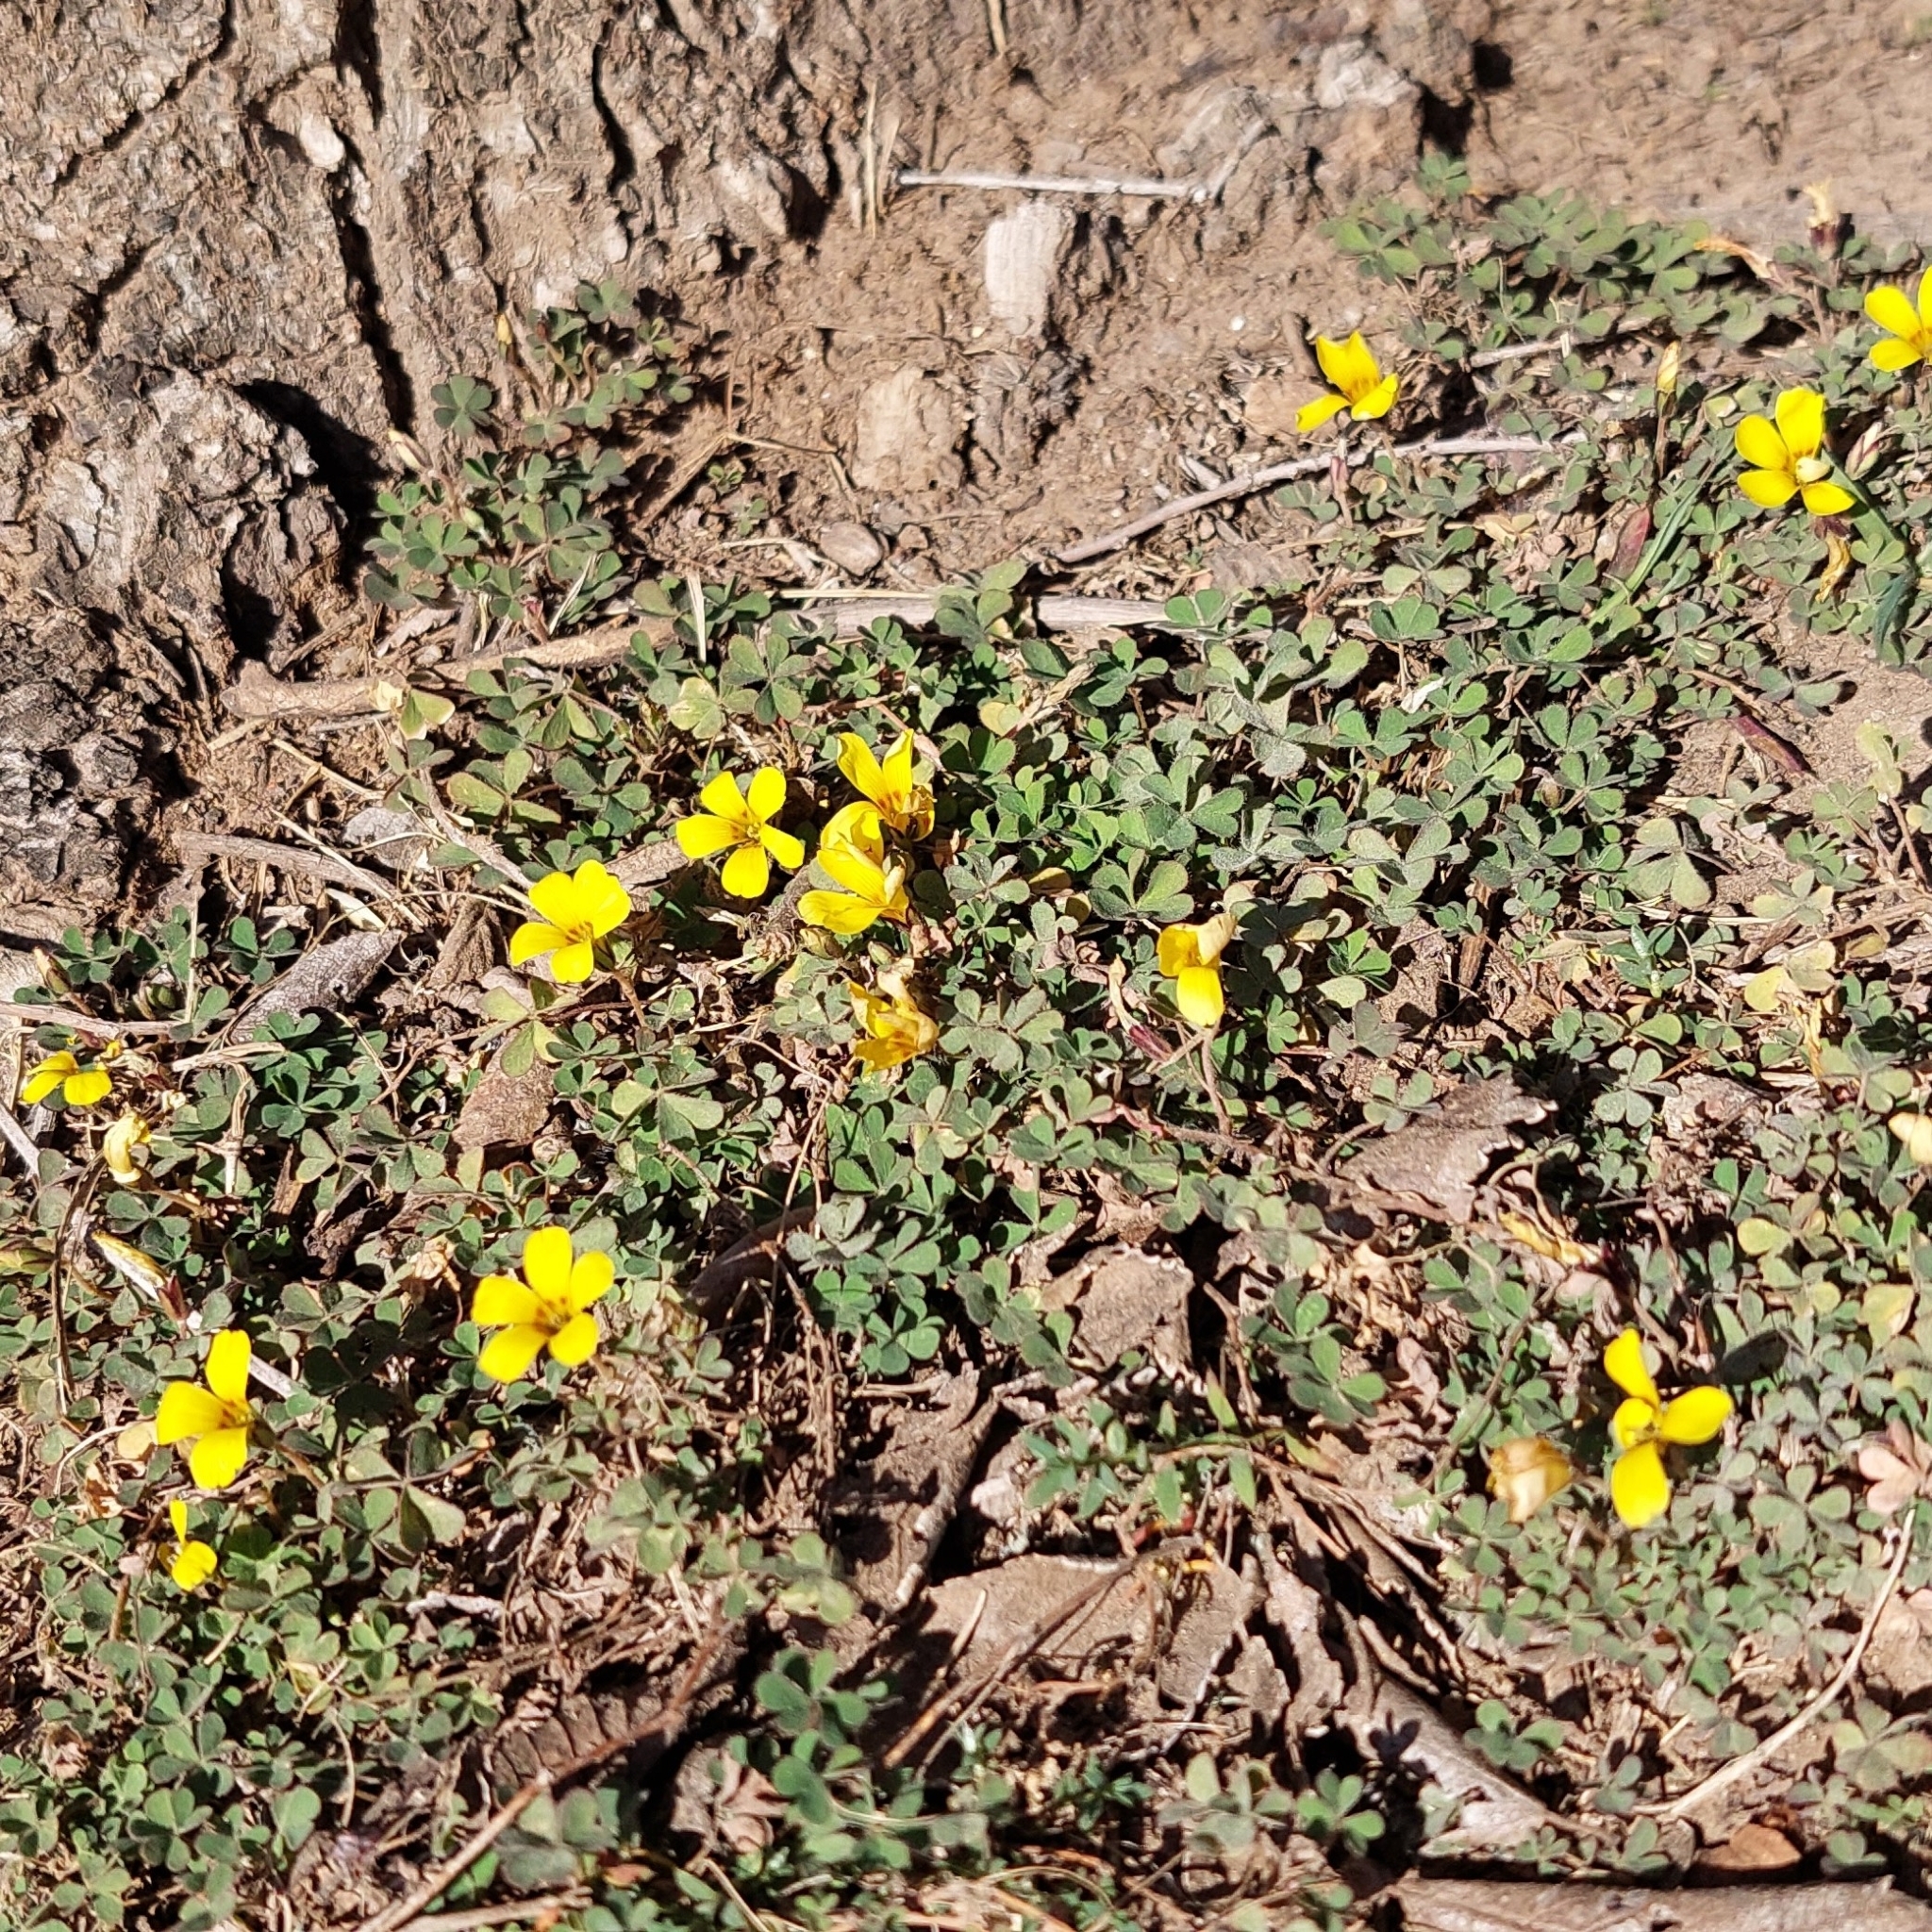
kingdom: Plantae
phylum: Tracheophyta
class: Magnoliopsida
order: Oxalidales
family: Oxalidaceae
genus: Oxalis
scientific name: Oxalis corniculata
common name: Procumbent yellow-sorrel
